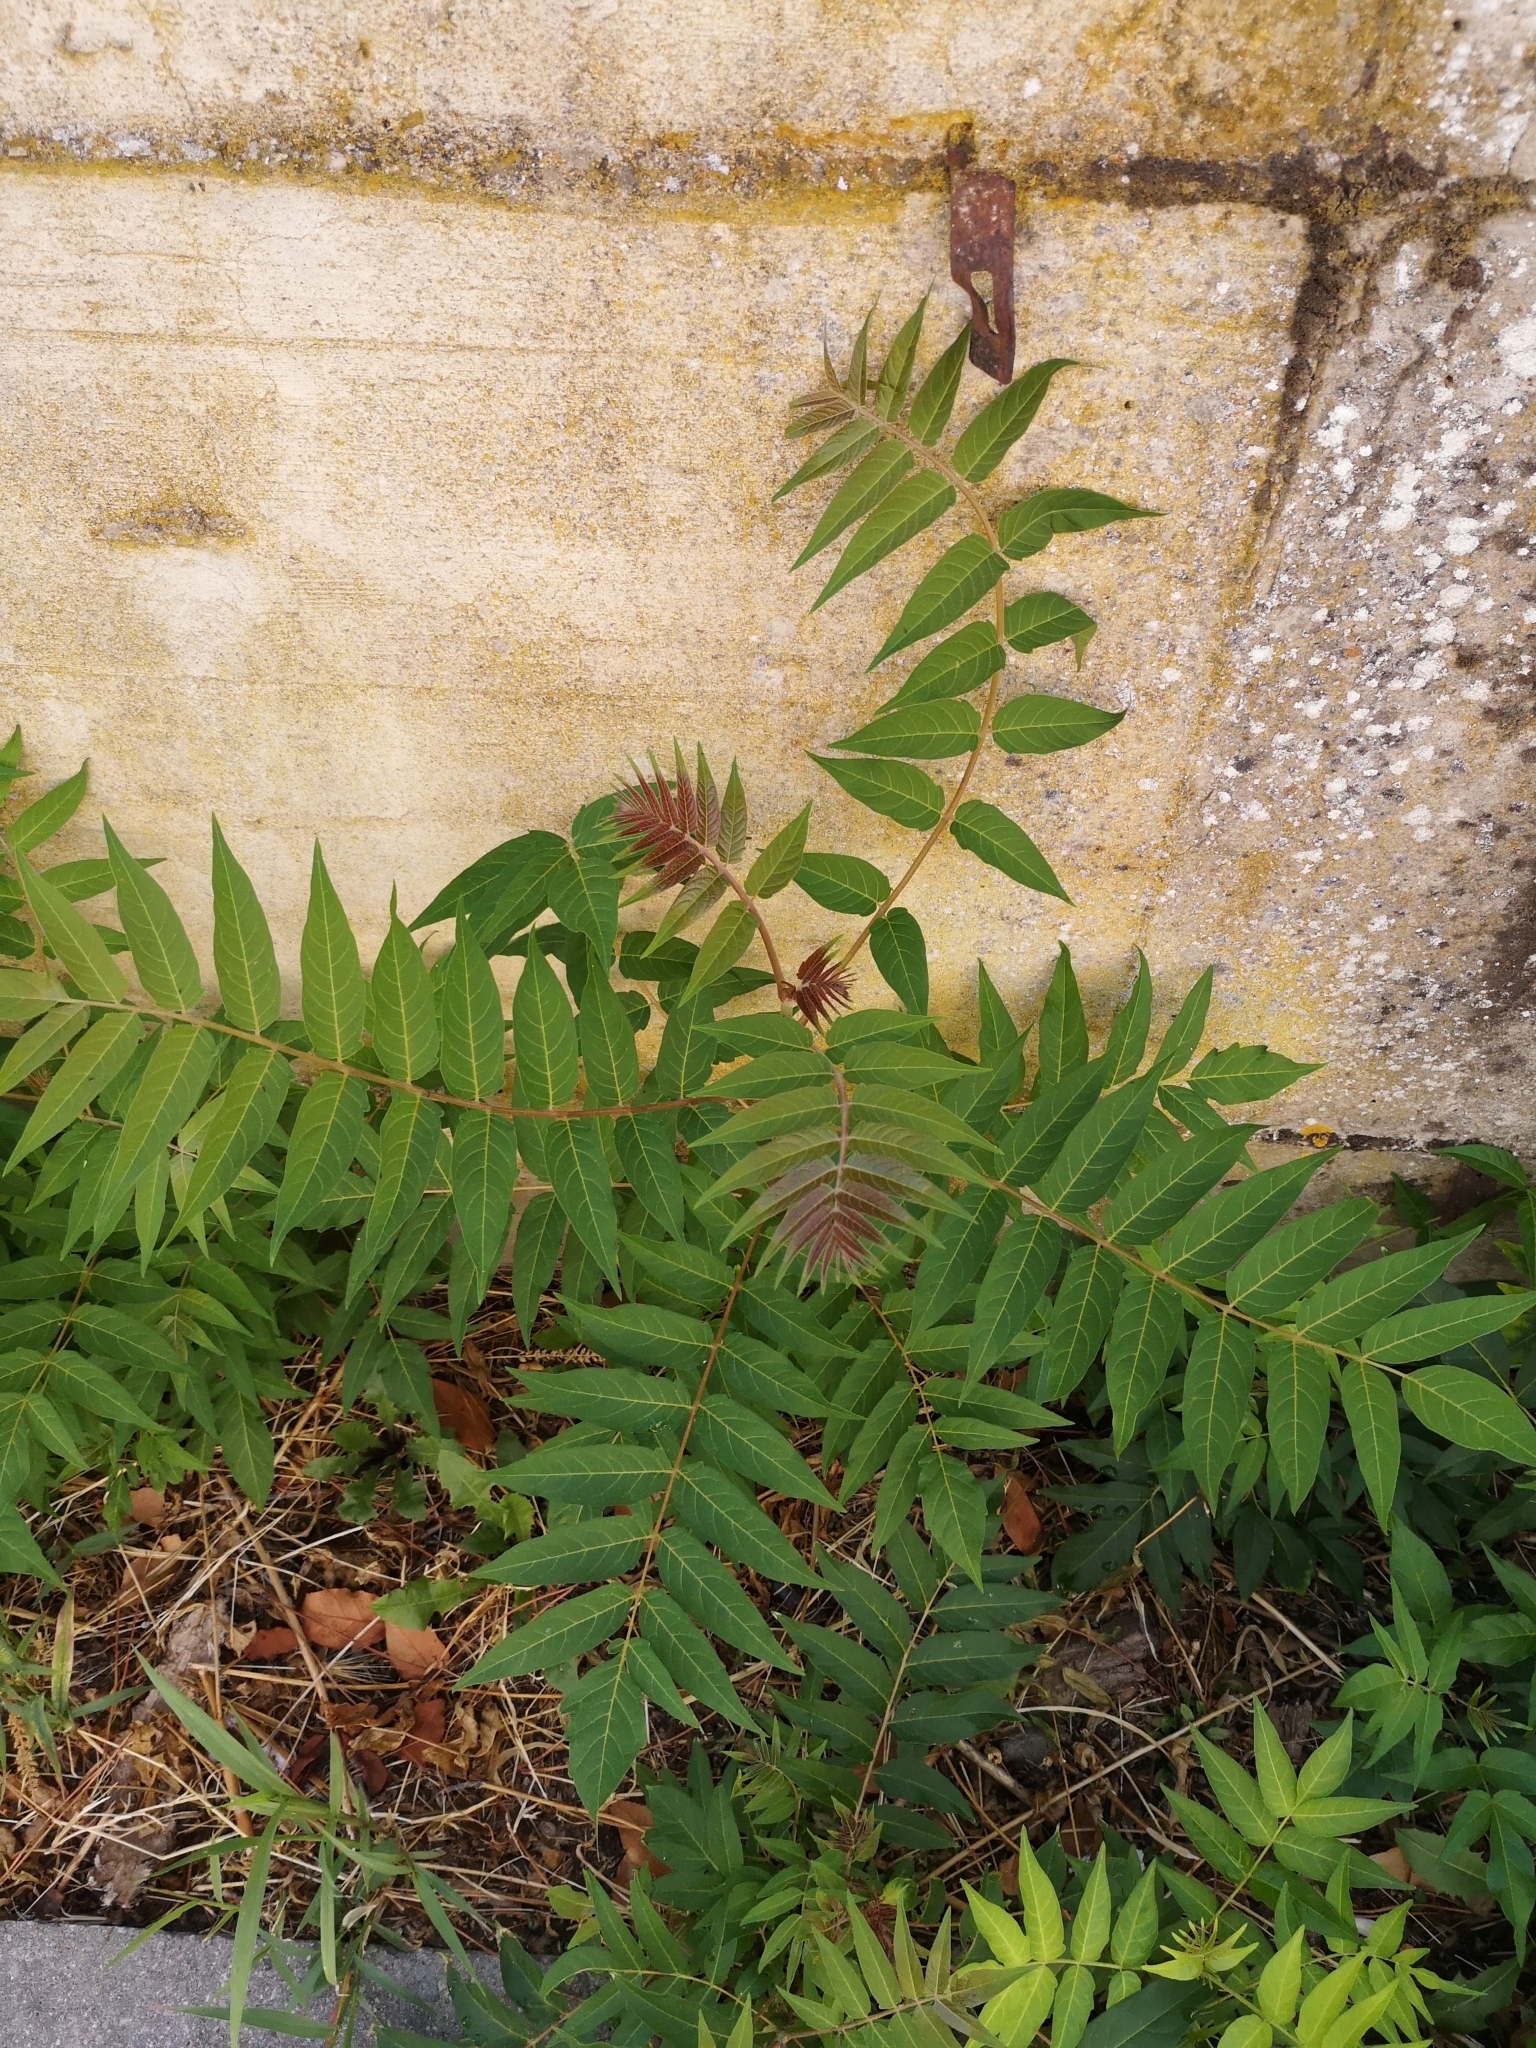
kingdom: Plantae
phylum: Tracheophyta
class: Magnoliopsida
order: Sapindales
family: Simaroubaceae
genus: Ailanthus
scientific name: Ailanthus altissima
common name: Tree-of-heaven
